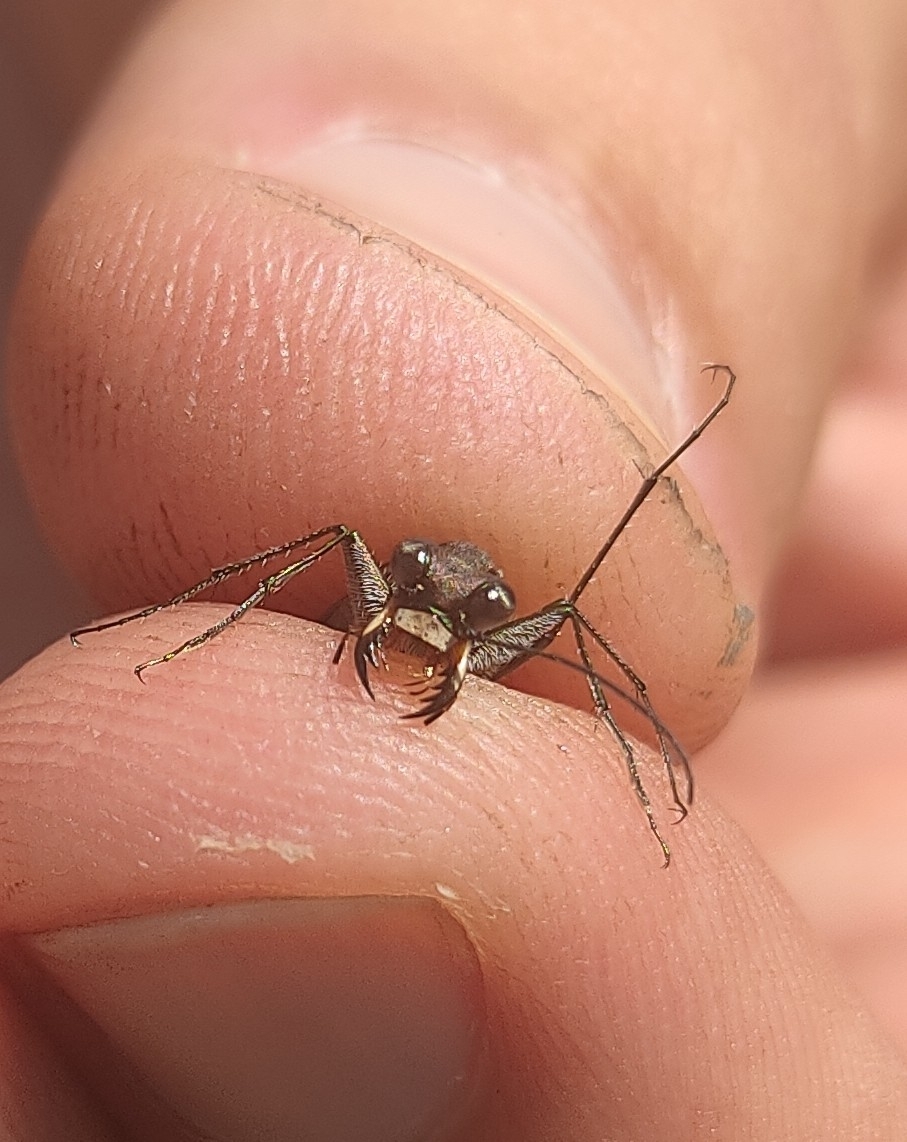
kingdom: Animalia
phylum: Arthropoda
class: Insecta
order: Coleoptera
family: Carabidae
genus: Myriochila
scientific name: Myriochila melancholica
